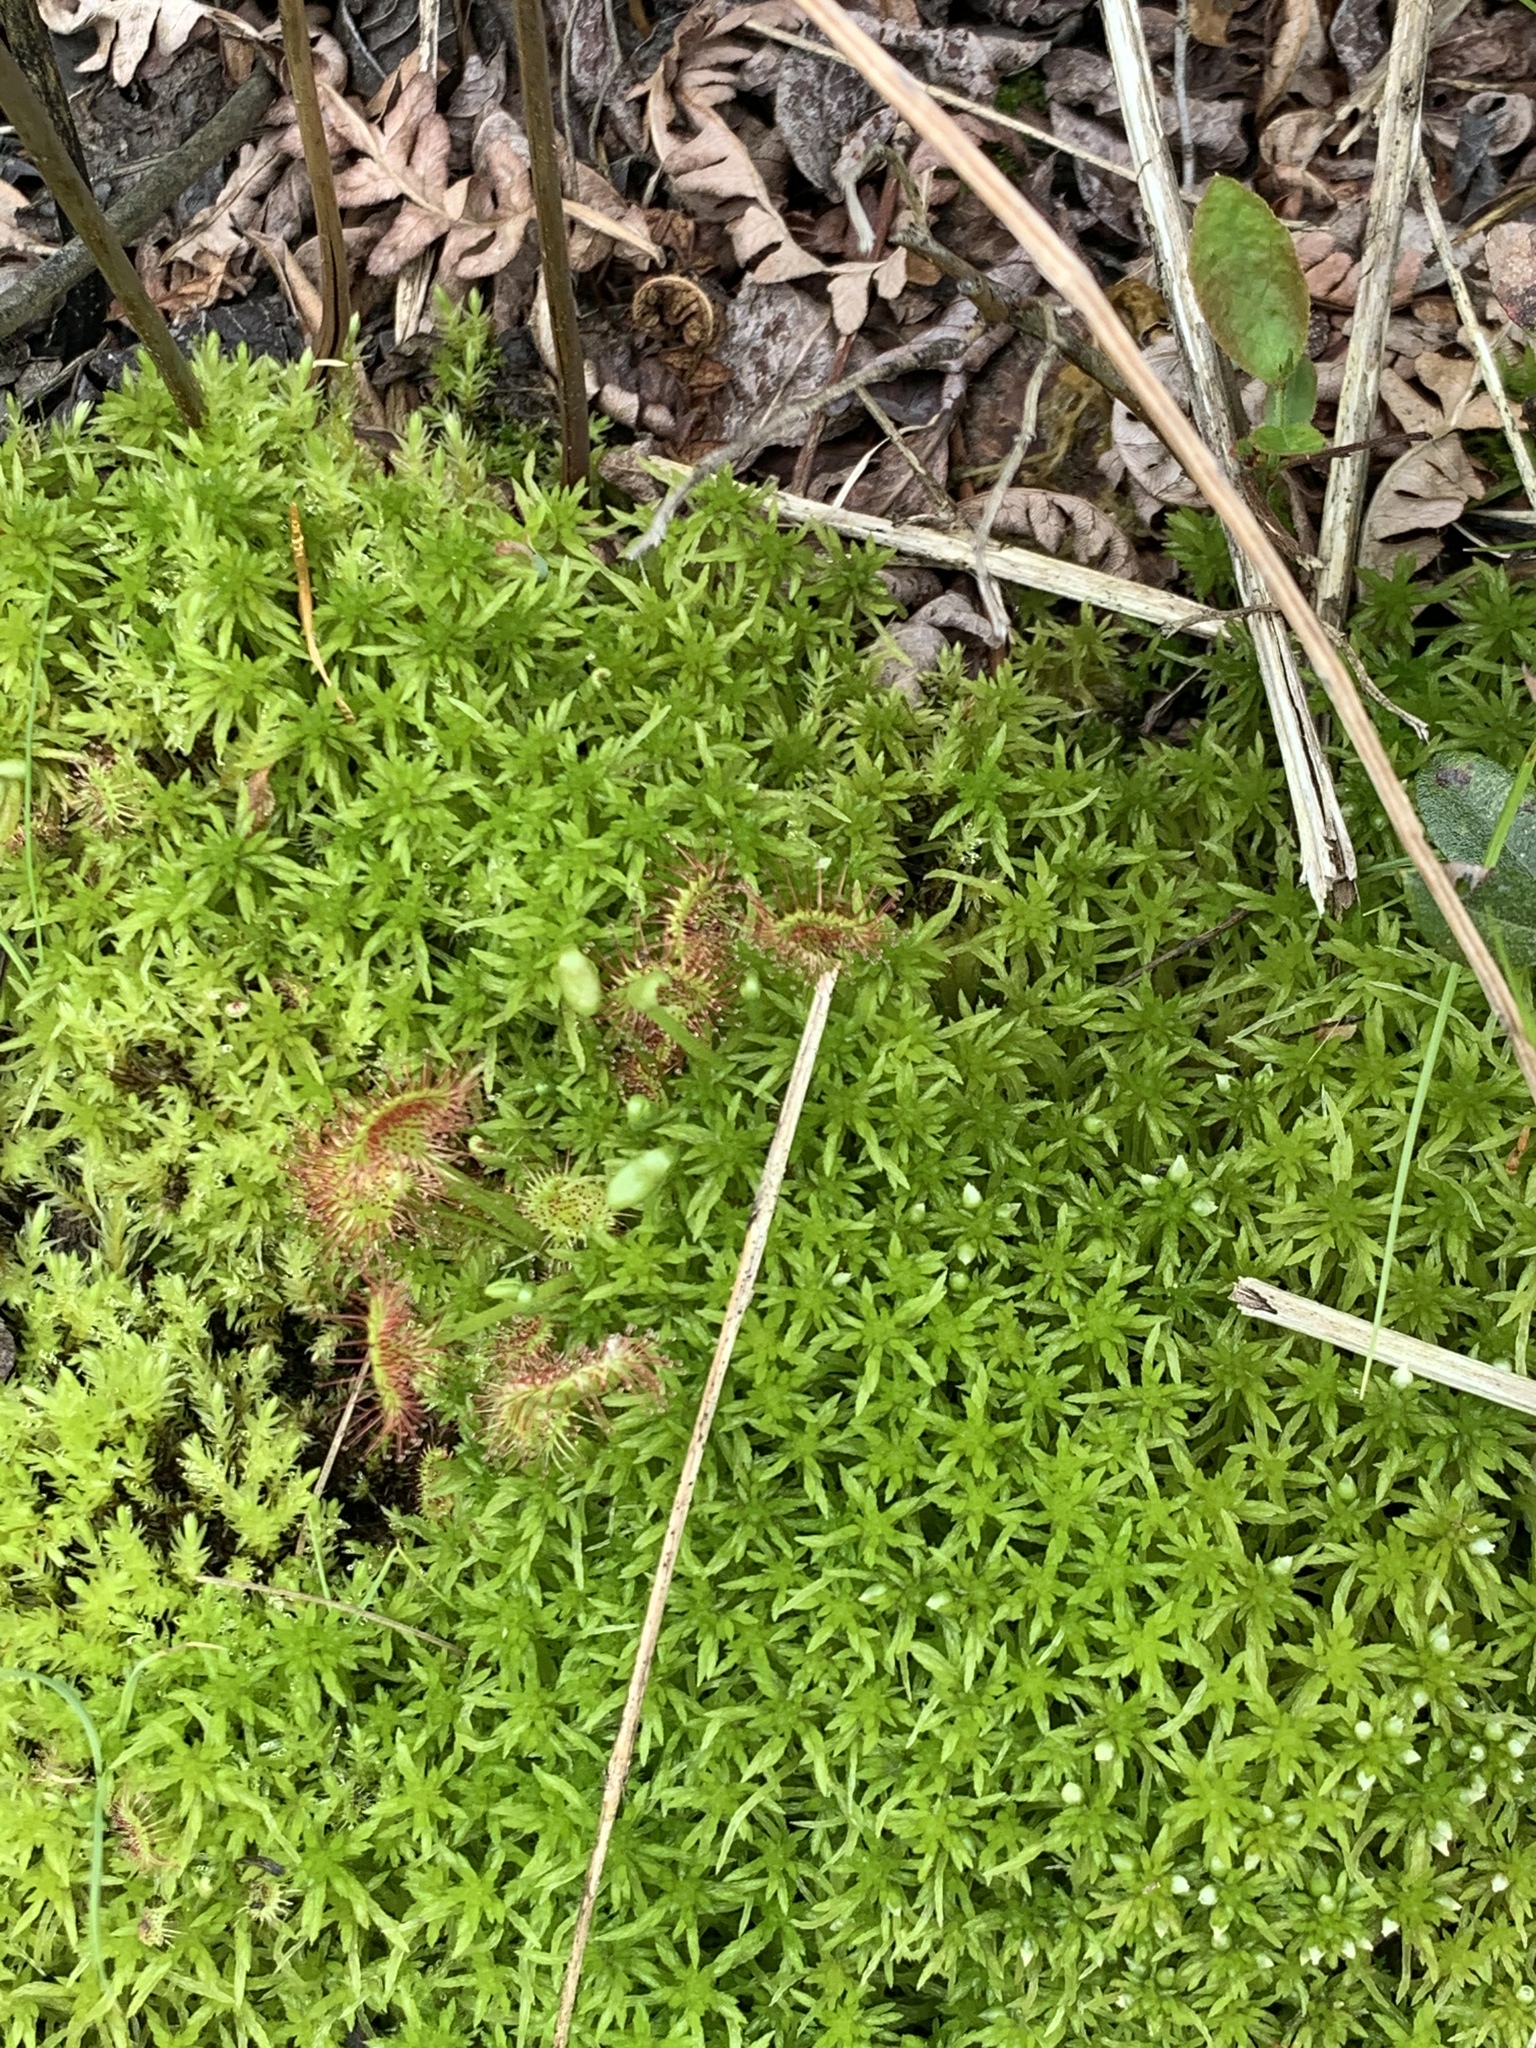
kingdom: Plantae
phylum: Tracheophyta
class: Magnoliopsida
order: Caryophyllales
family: Droseraceae
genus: Drosera
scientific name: Drosera rotundifolia
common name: Round-leaved sundew
